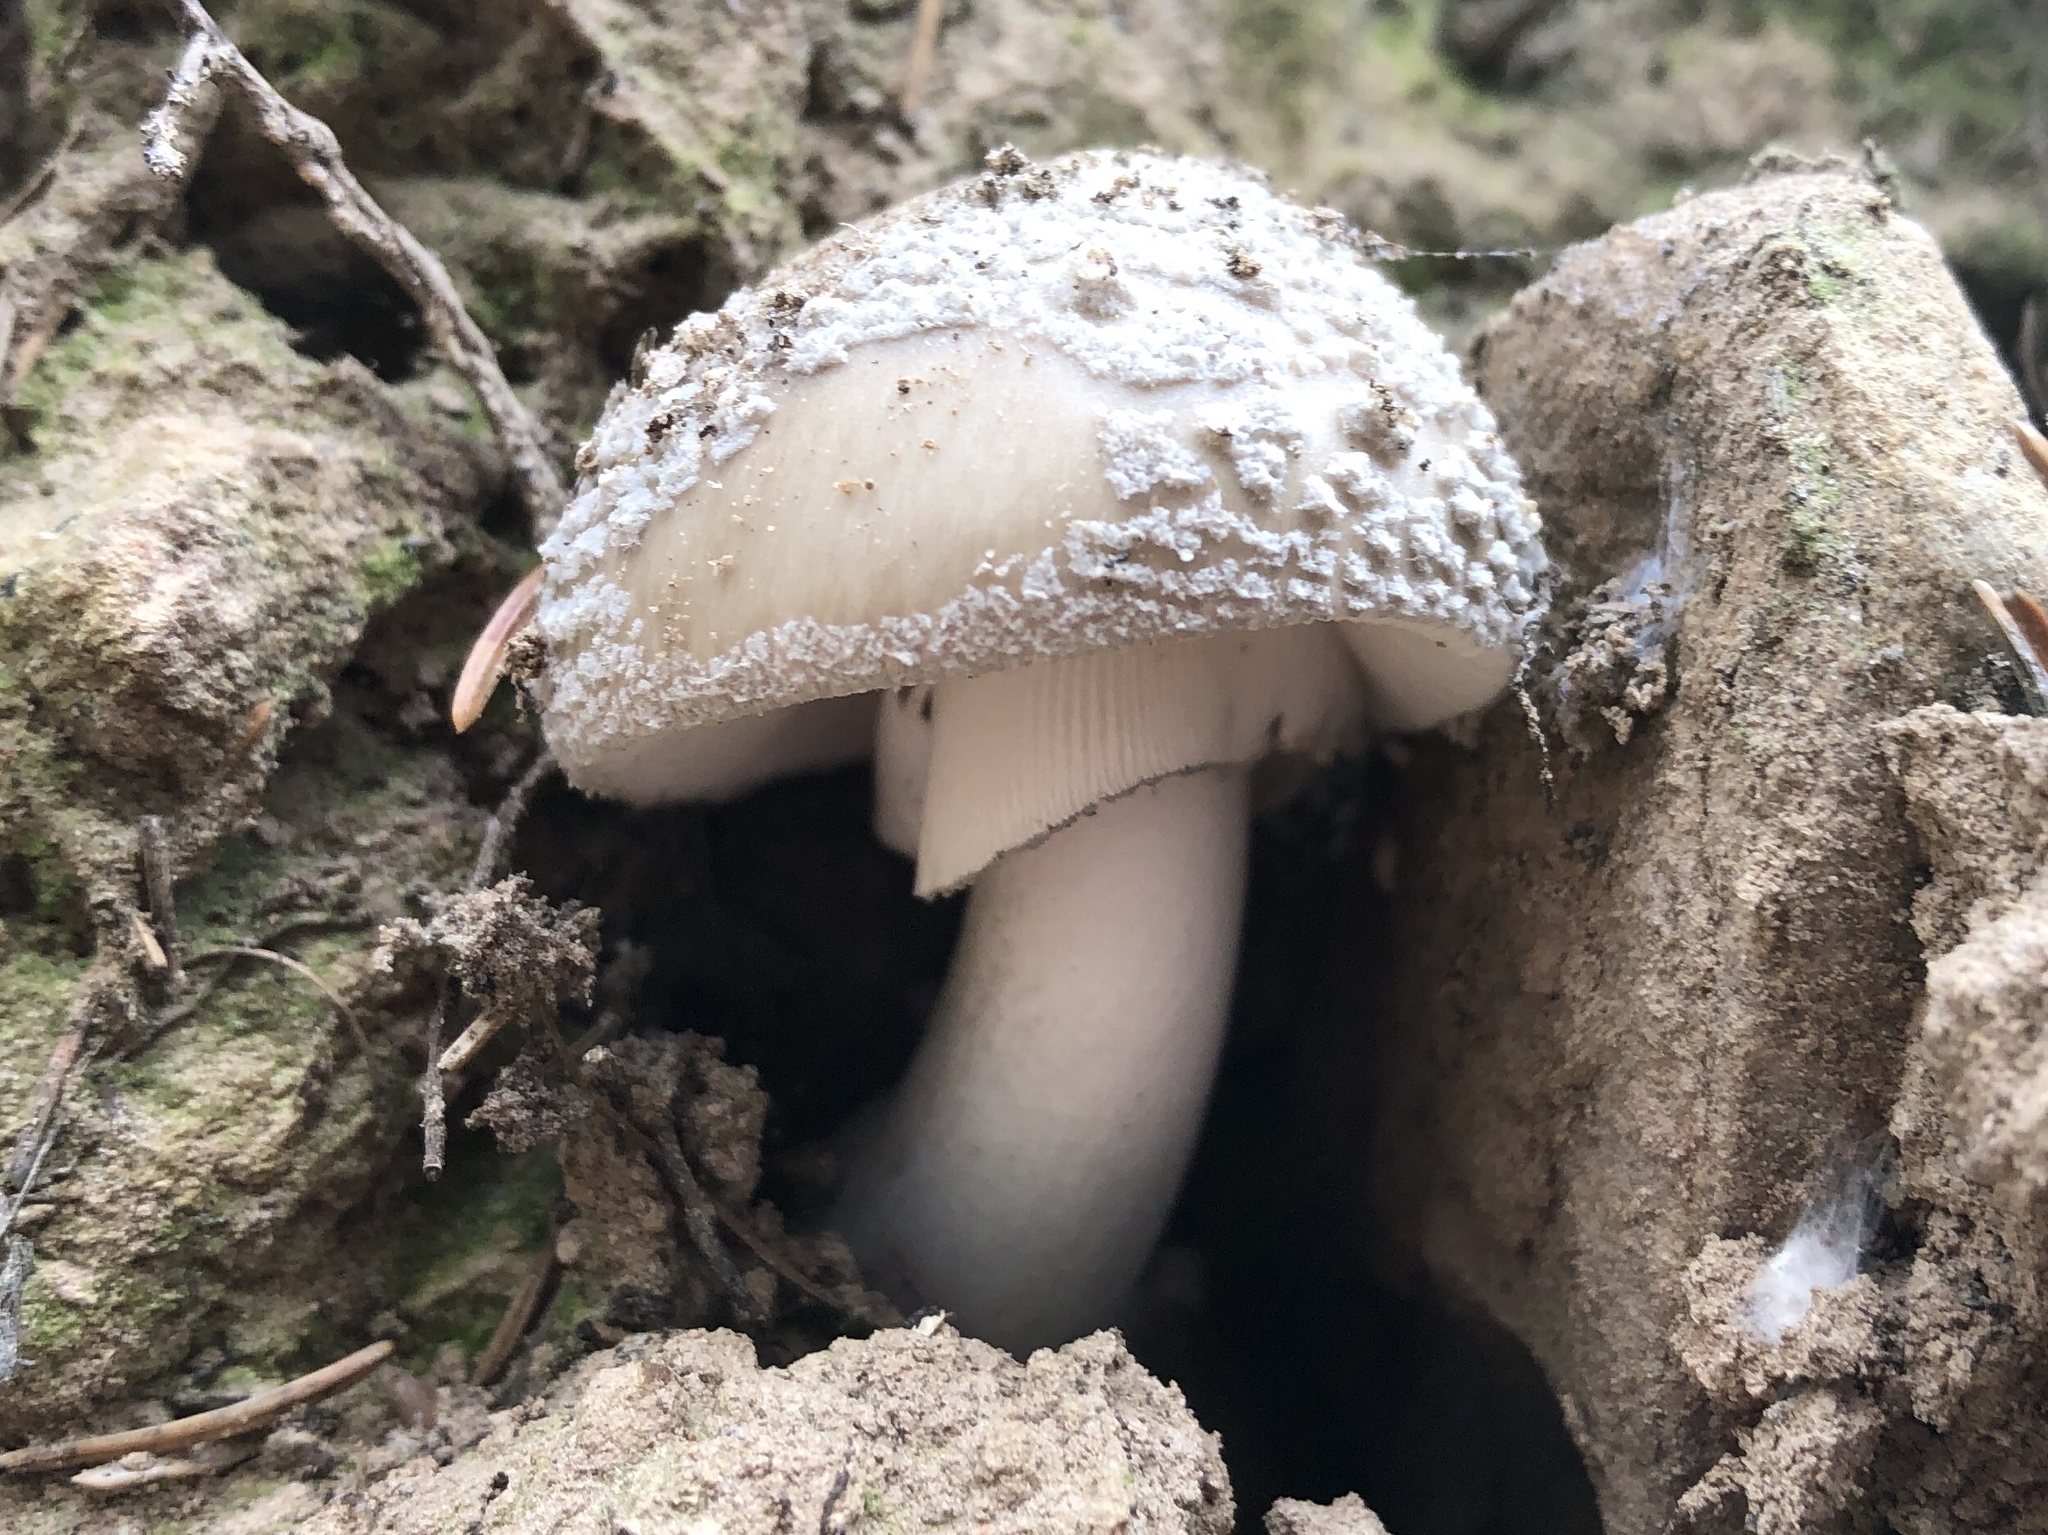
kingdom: Fungi
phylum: Basidiomycota
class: Agaricomycetes
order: Agaricales
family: Amanitaceae
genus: Amanita
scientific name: Amanita excelsa
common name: European false blusher
